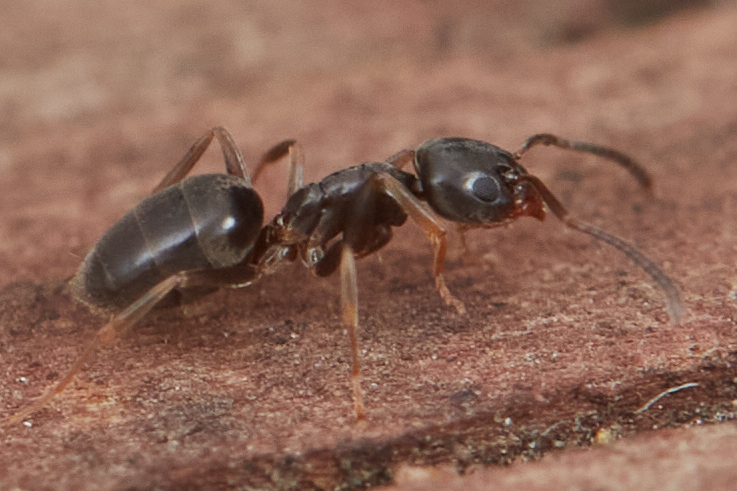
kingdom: Animalia
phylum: Arthropoda
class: Insecta
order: Hymenoptera
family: Formicidae
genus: Tapinoma
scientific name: Tapinoma sessile
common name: Odorous house ant
